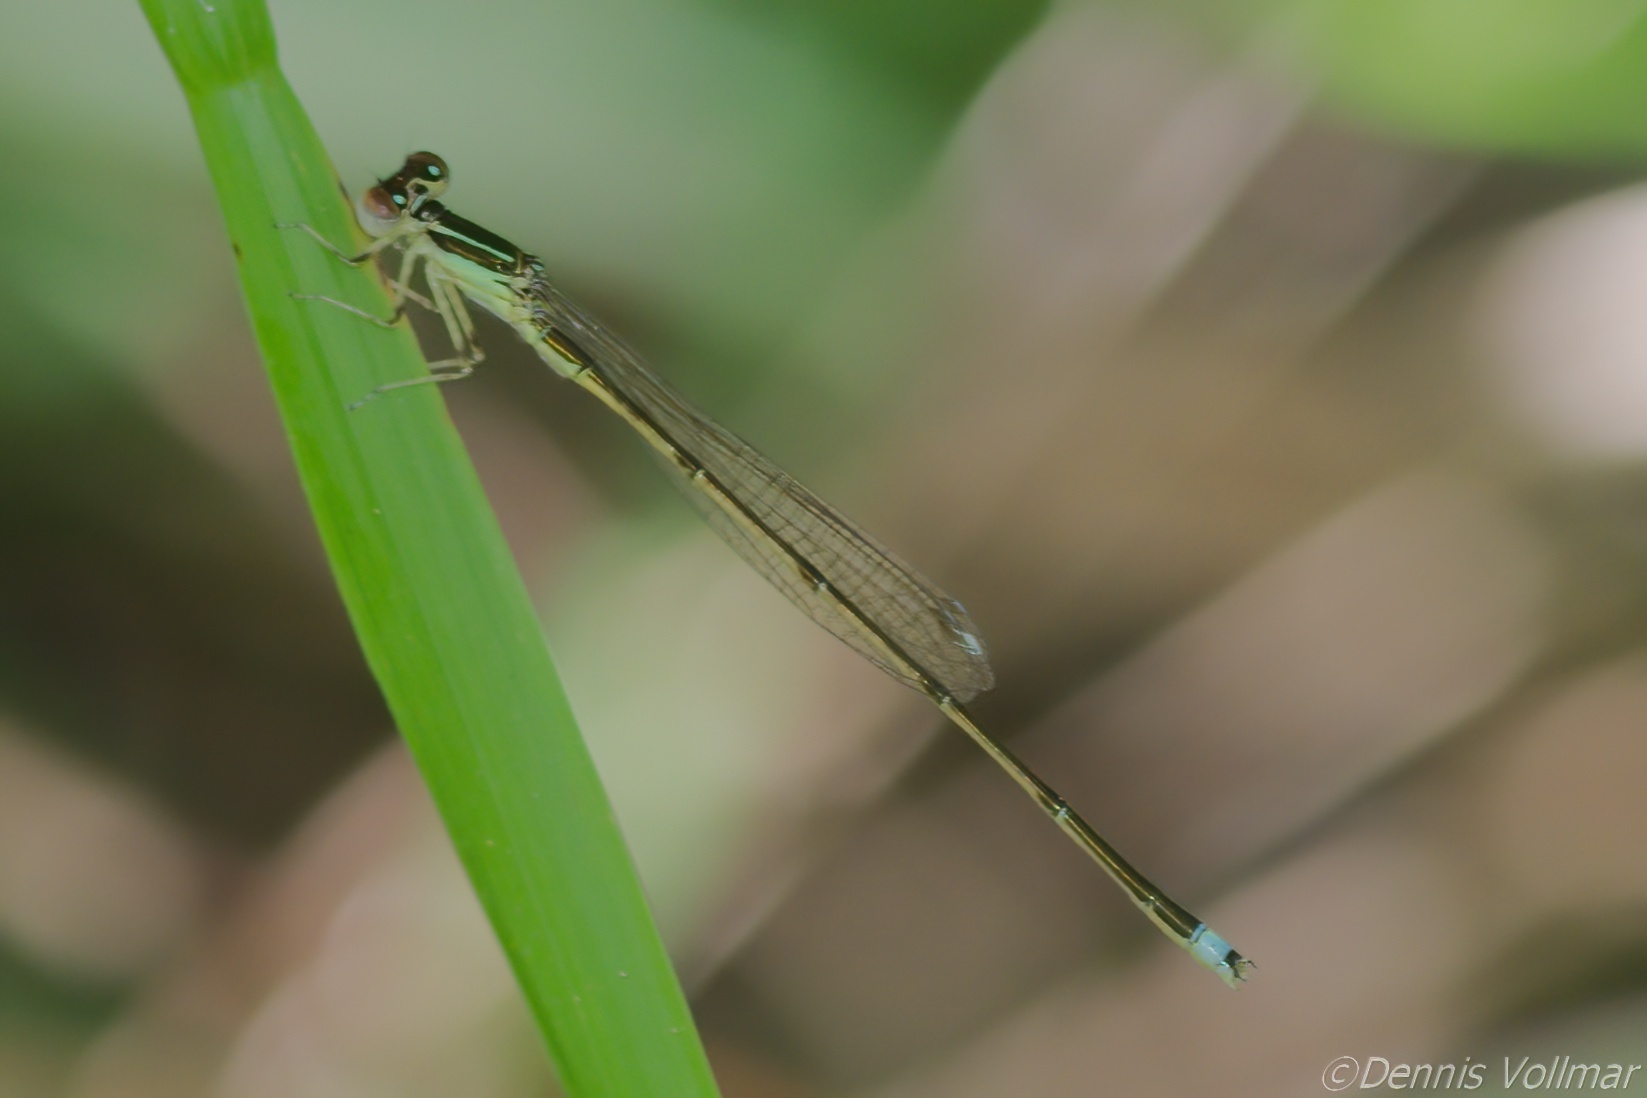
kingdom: Animalia
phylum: Arthropoda
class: Insecta
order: Odonata
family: Coenagrionidae
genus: Ischnura
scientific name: Ischnura prognata
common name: Furtive forktail
